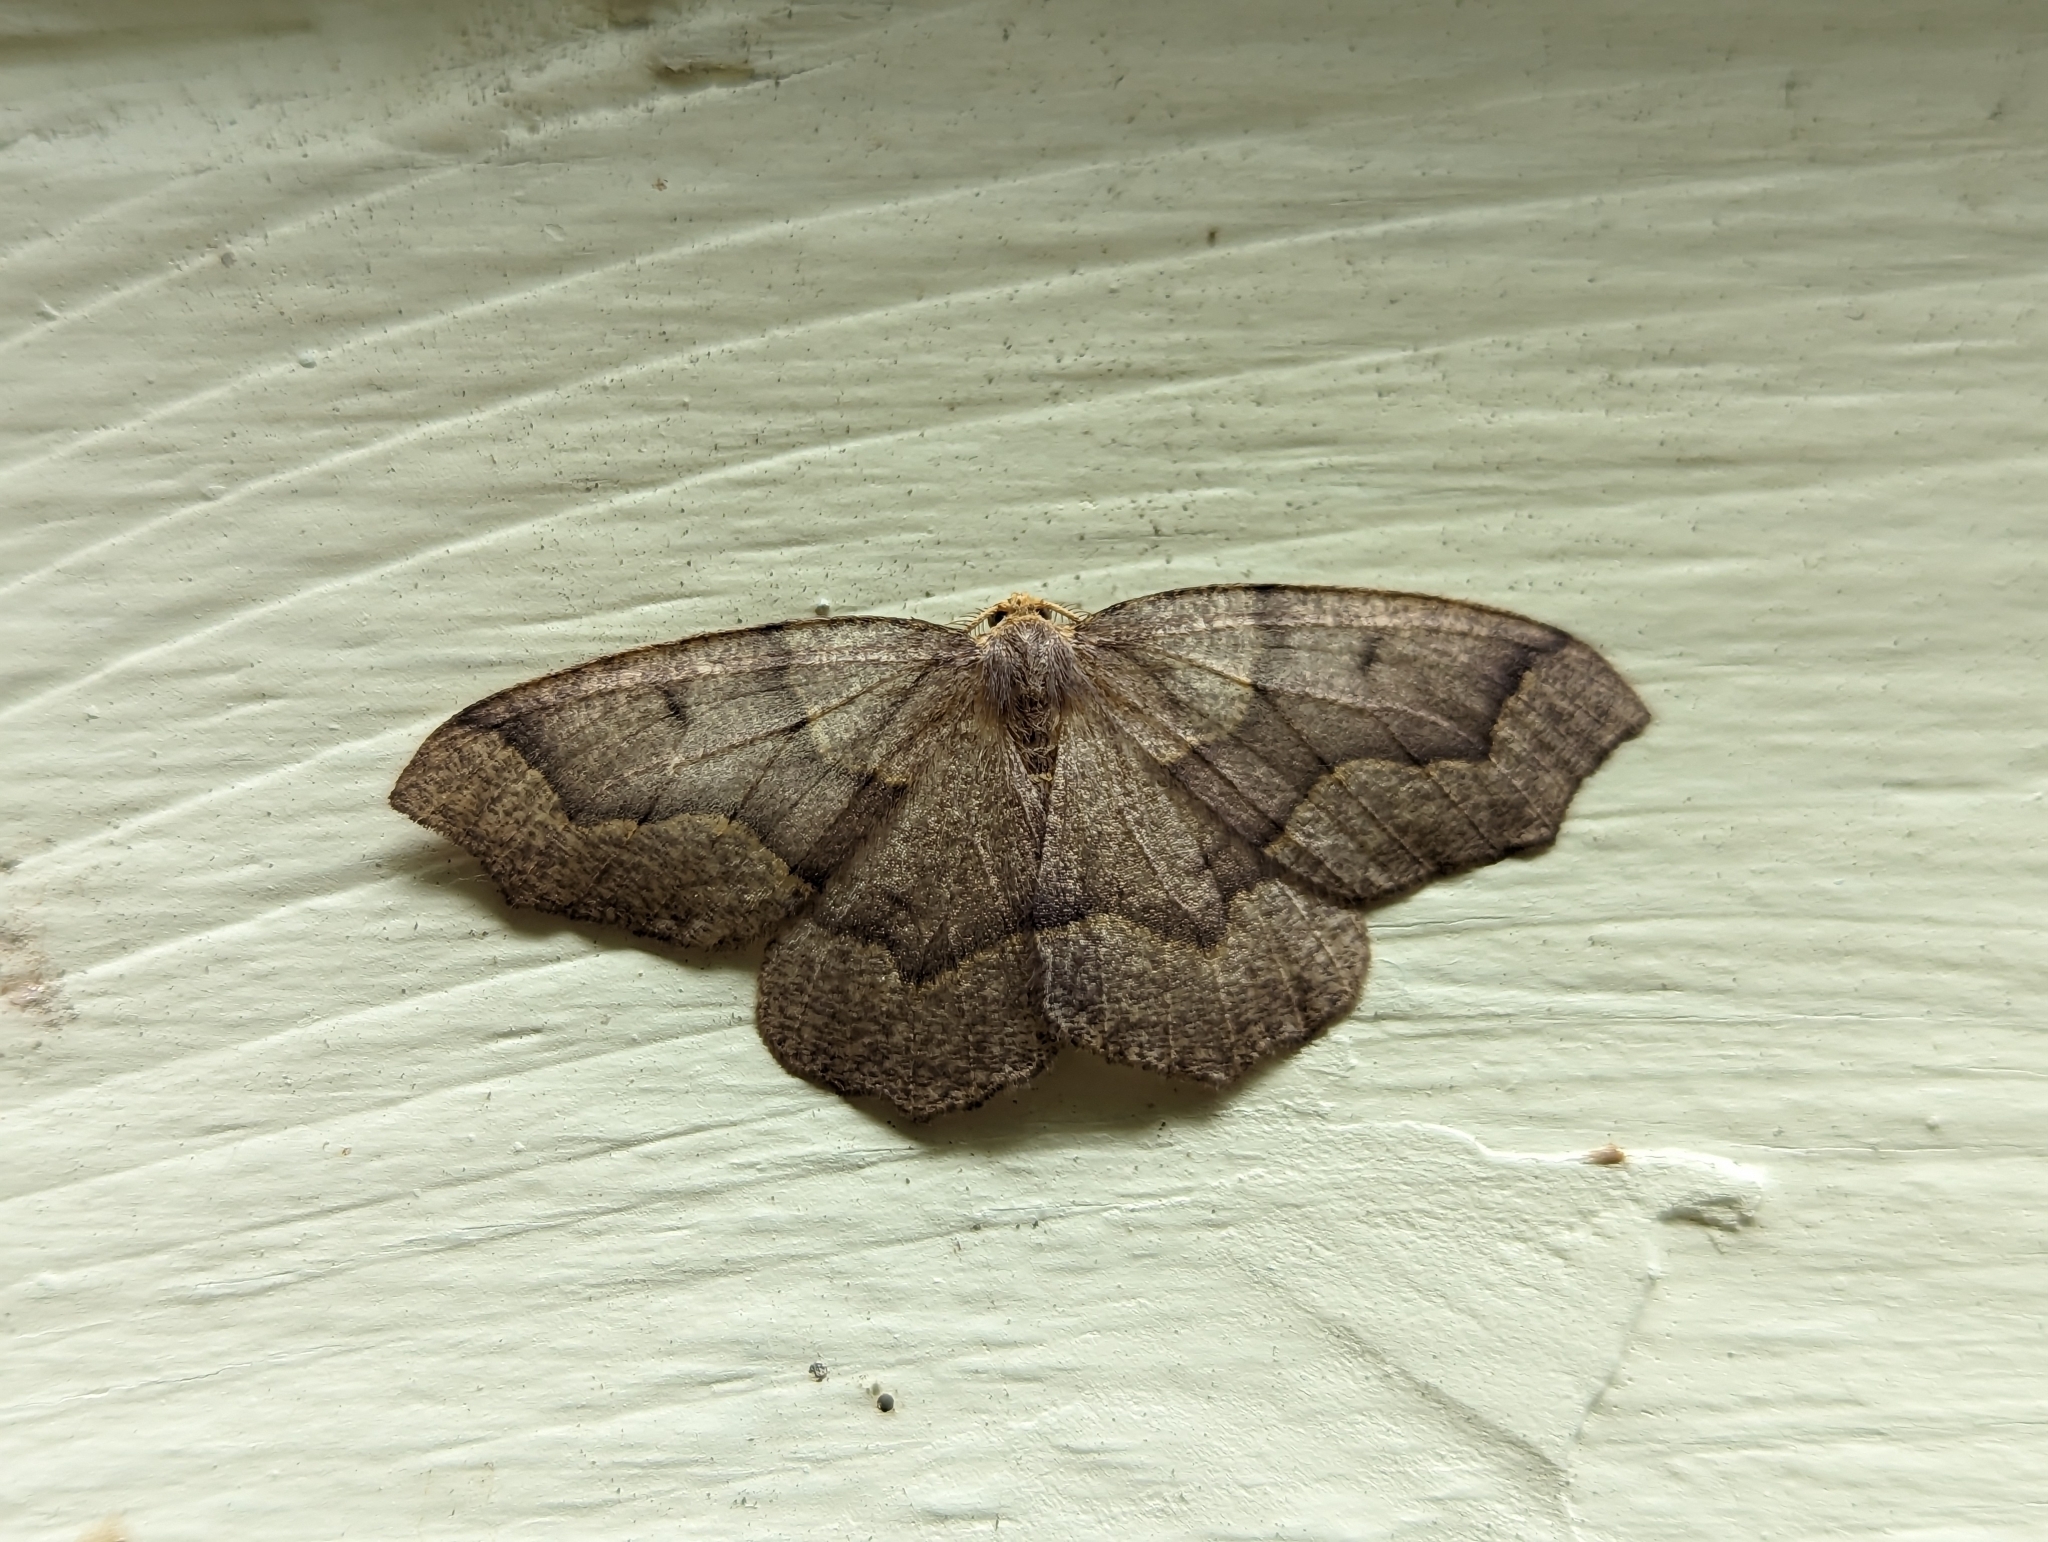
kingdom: Animalia
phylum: Arthropoda
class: Insecta
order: Lepidoptera
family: Geometridae
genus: Lambdina
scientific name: Lambdina fiscellaria
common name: Hemlock looper
